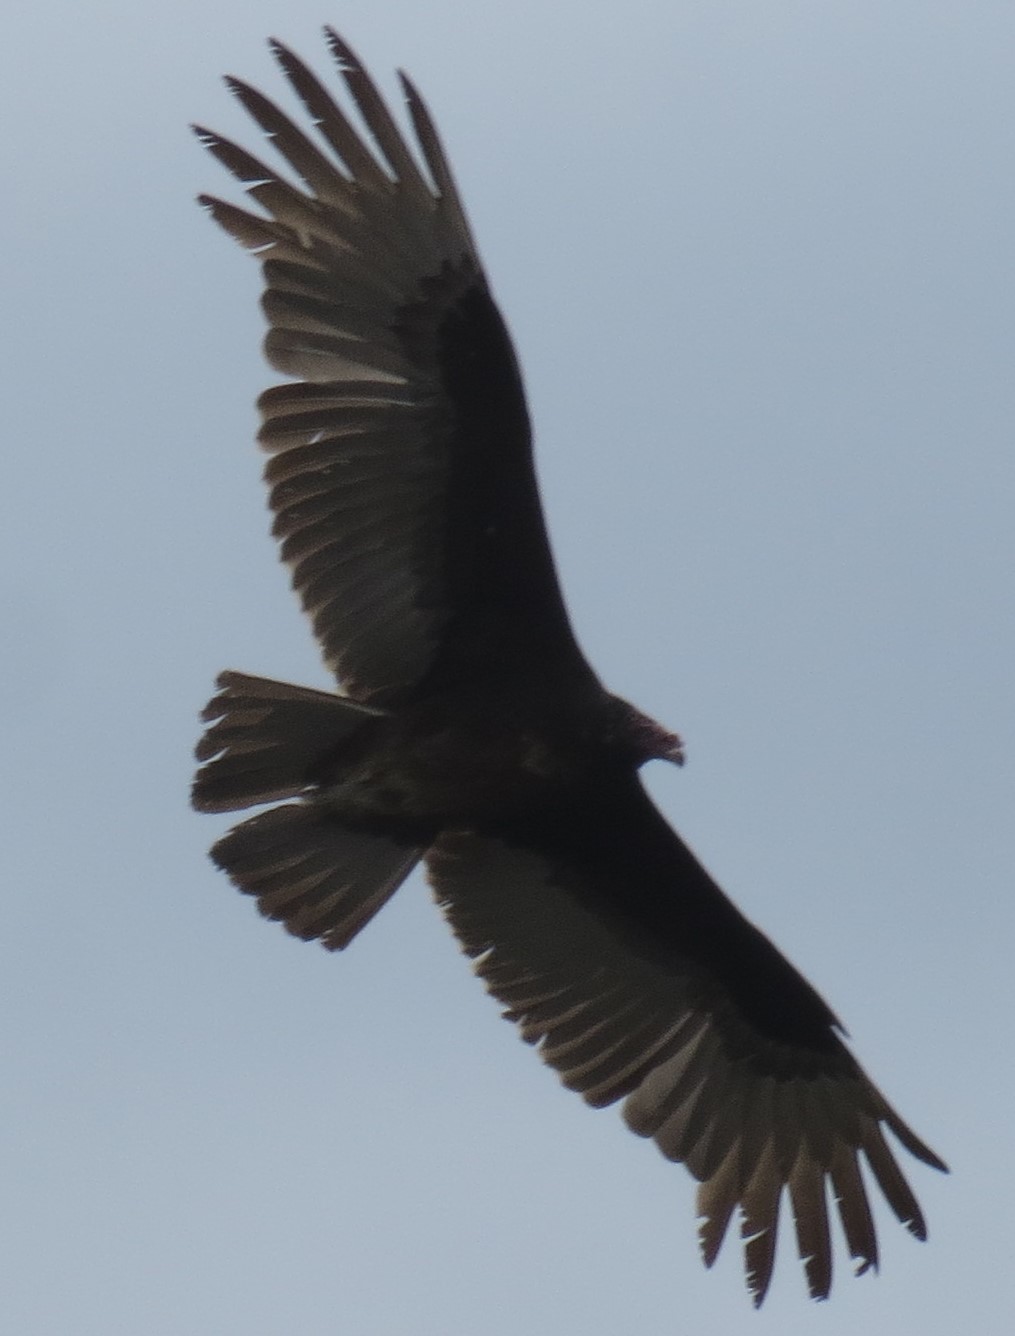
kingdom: Animalia
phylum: Chordata
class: Aves
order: Accipitriformes
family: Cathartidae
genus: Cathartes
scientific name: Cathartes aura
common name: Turkey vulture
